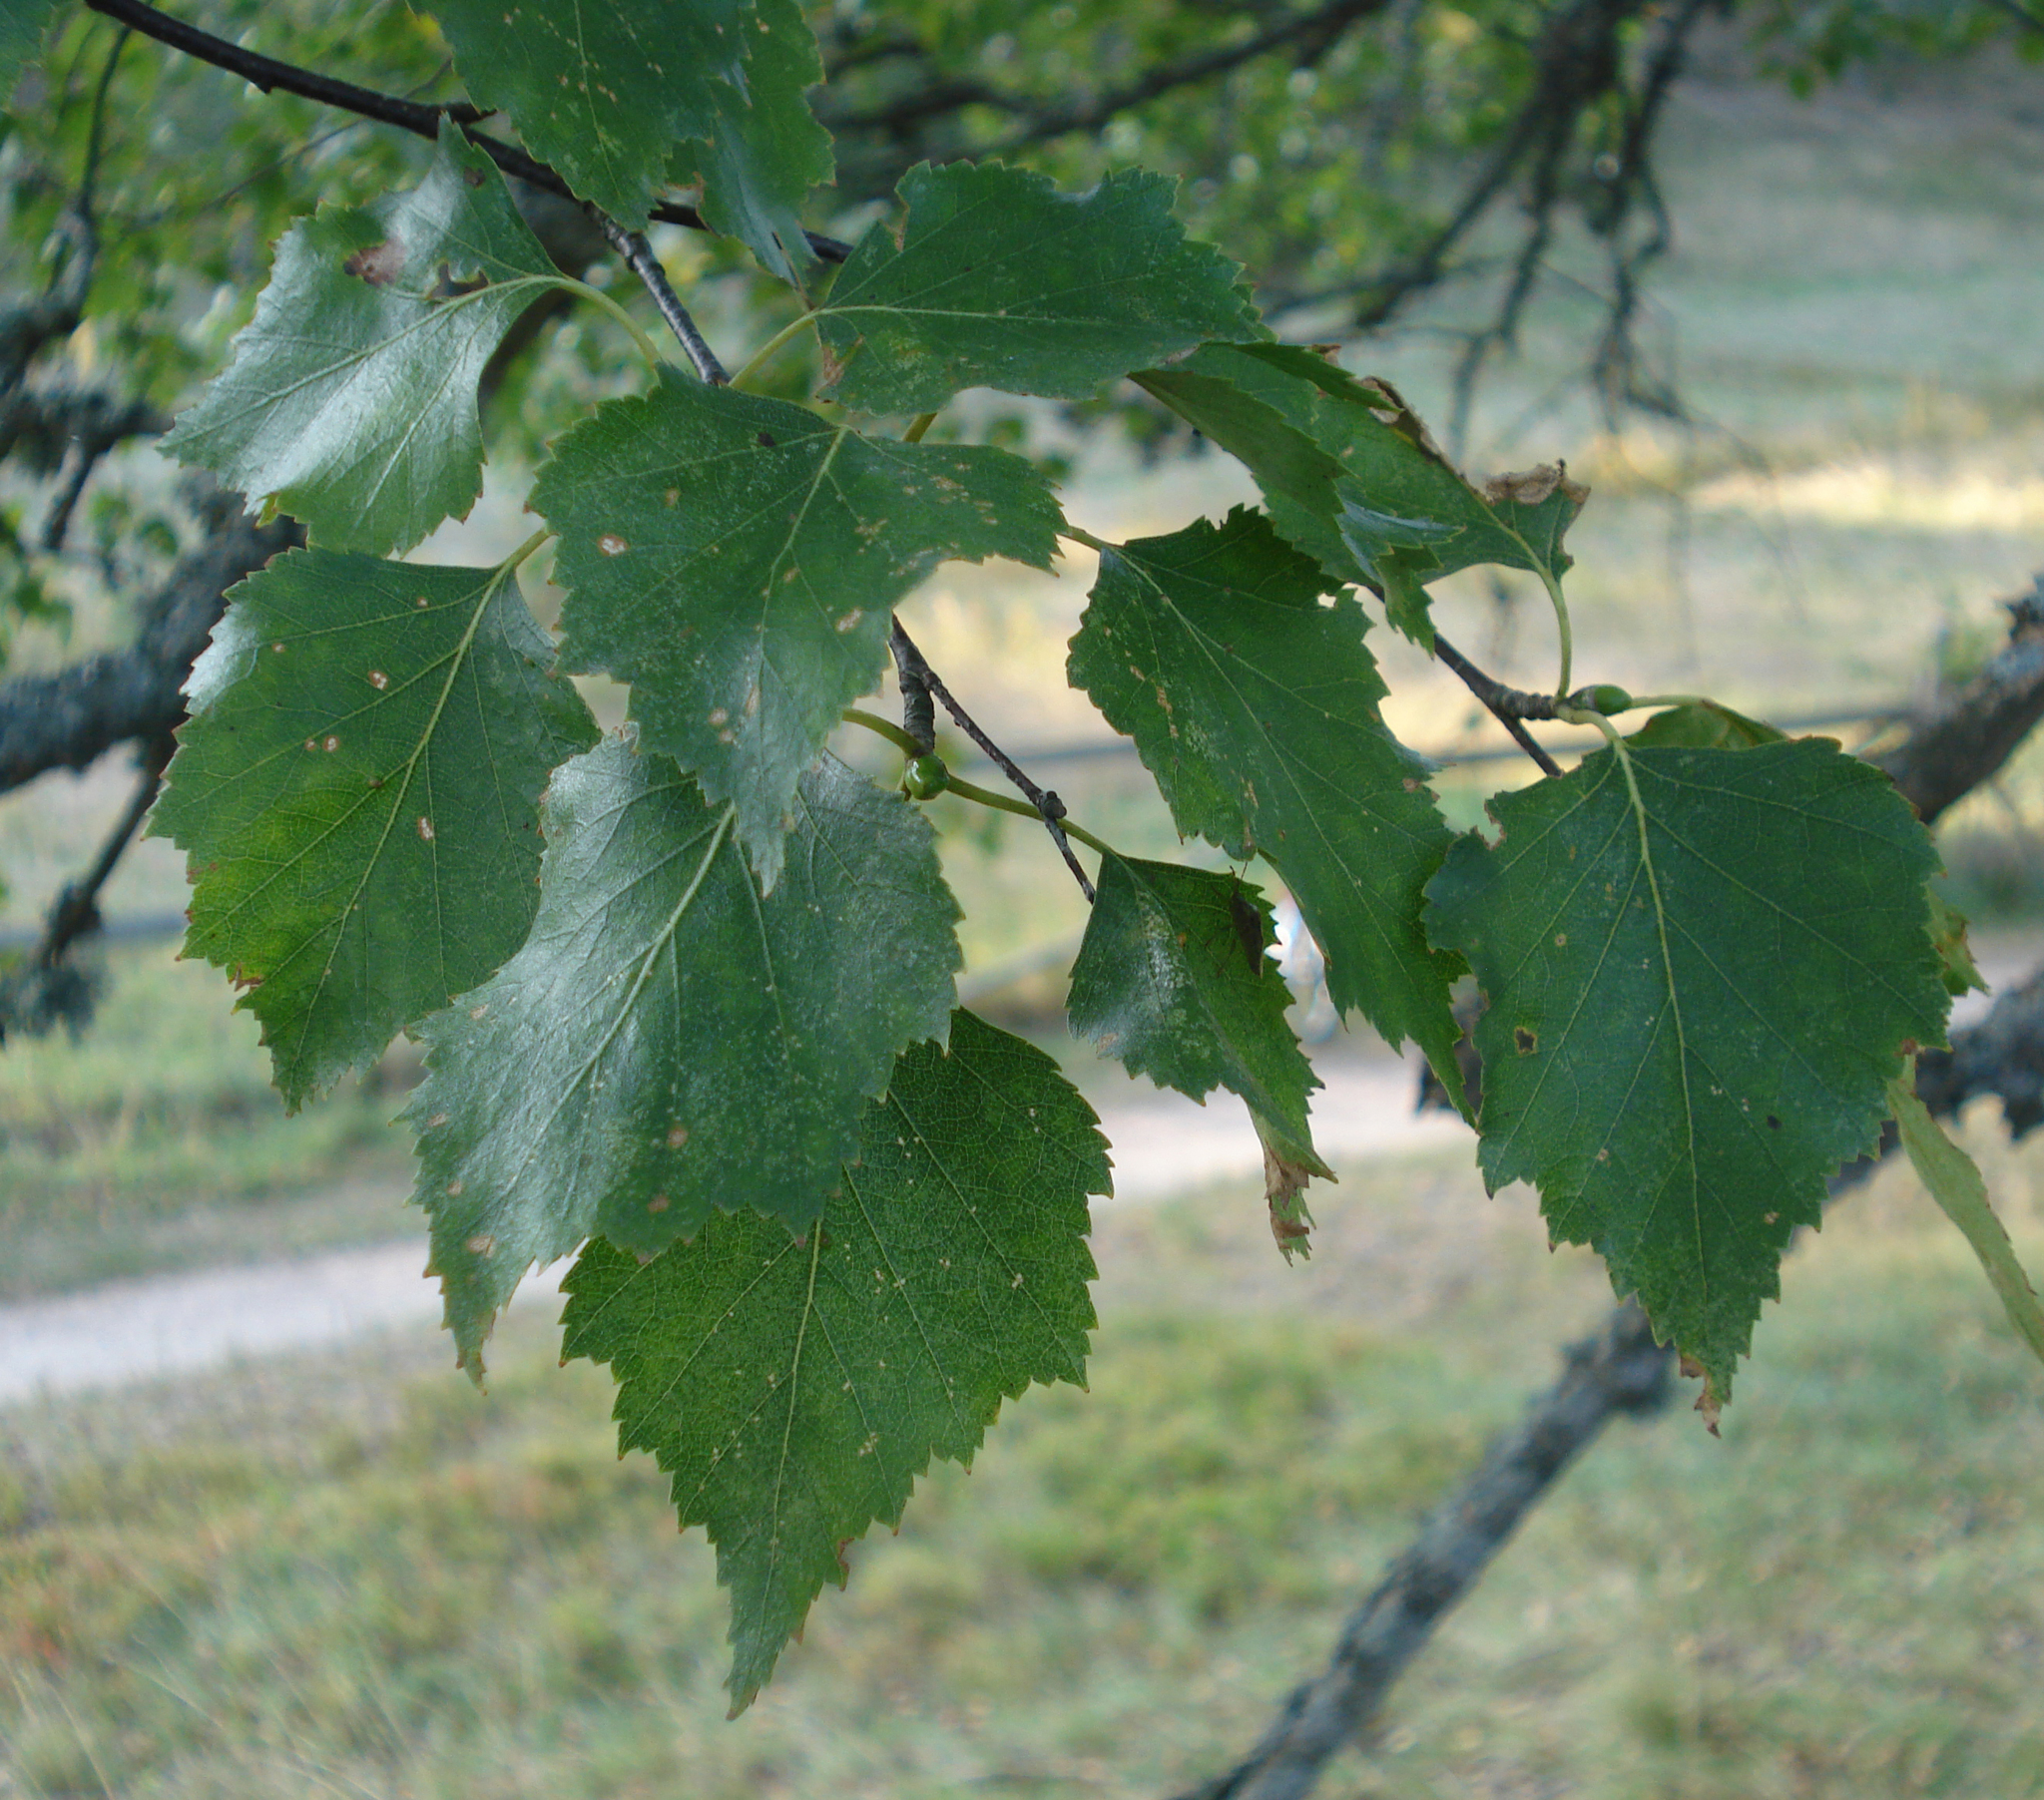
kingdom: Plantae
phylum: Tracheophyta
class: Magnoliopsida
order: Fagales
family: Betulaceae
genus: Betula
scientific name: Betula pendula
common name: Silver birch
